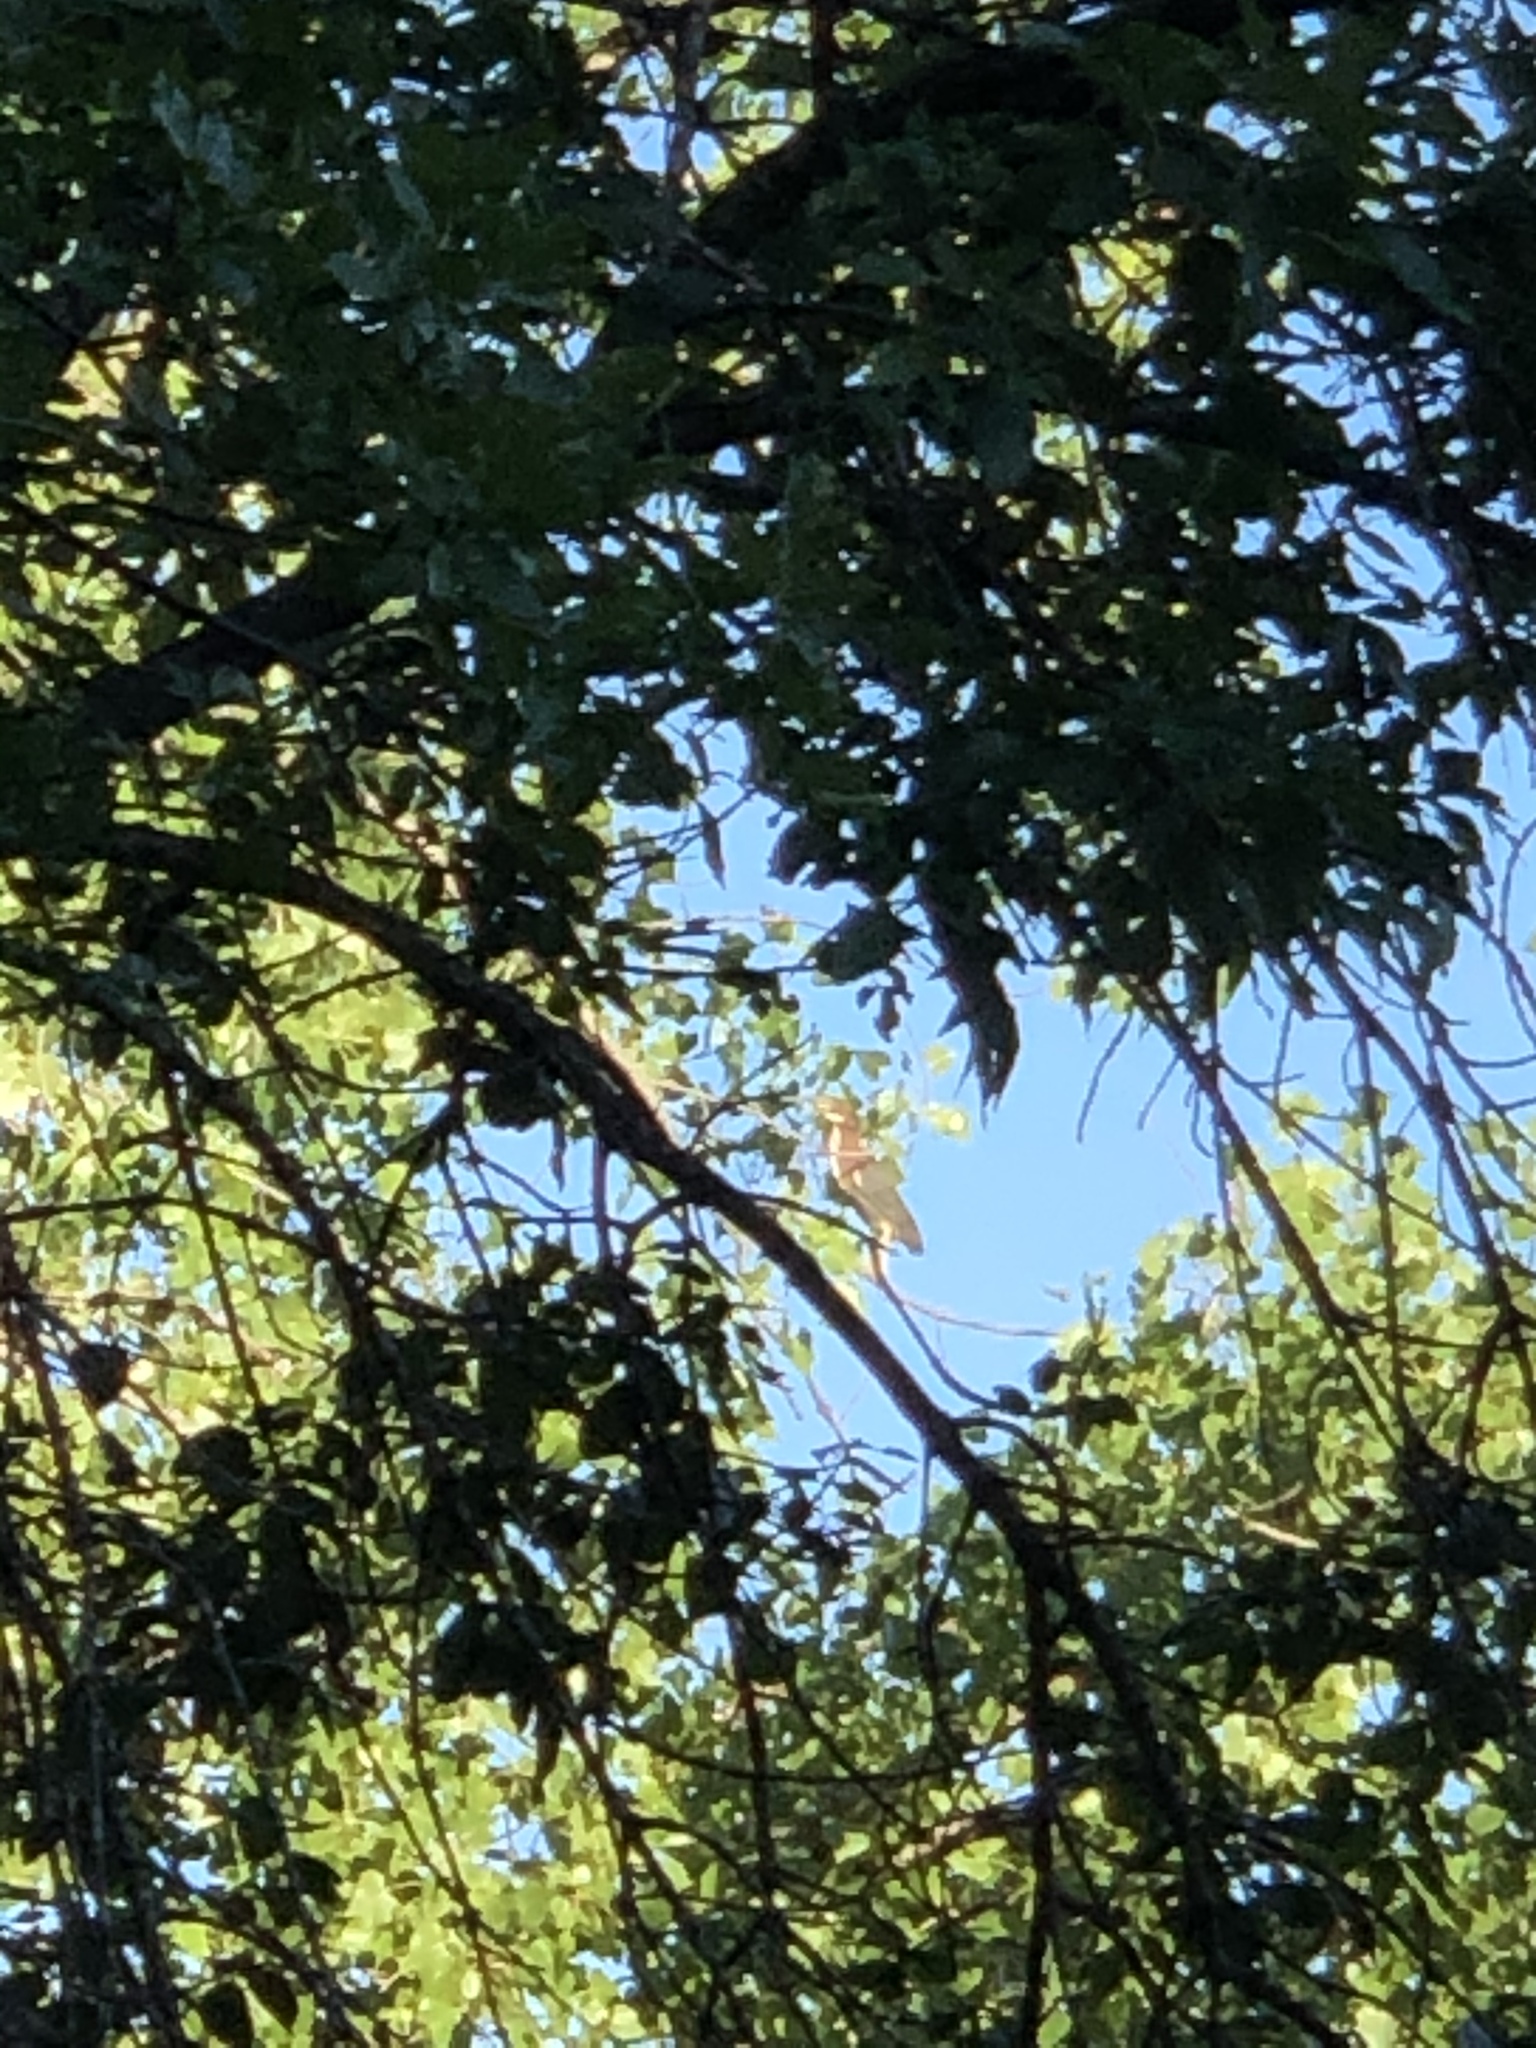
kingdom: Animalia
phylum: Chordata
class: Aves
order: Pelecaniformes
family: Ardeidae
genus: Butorides
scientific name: Butorides virescens
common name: Green heron
